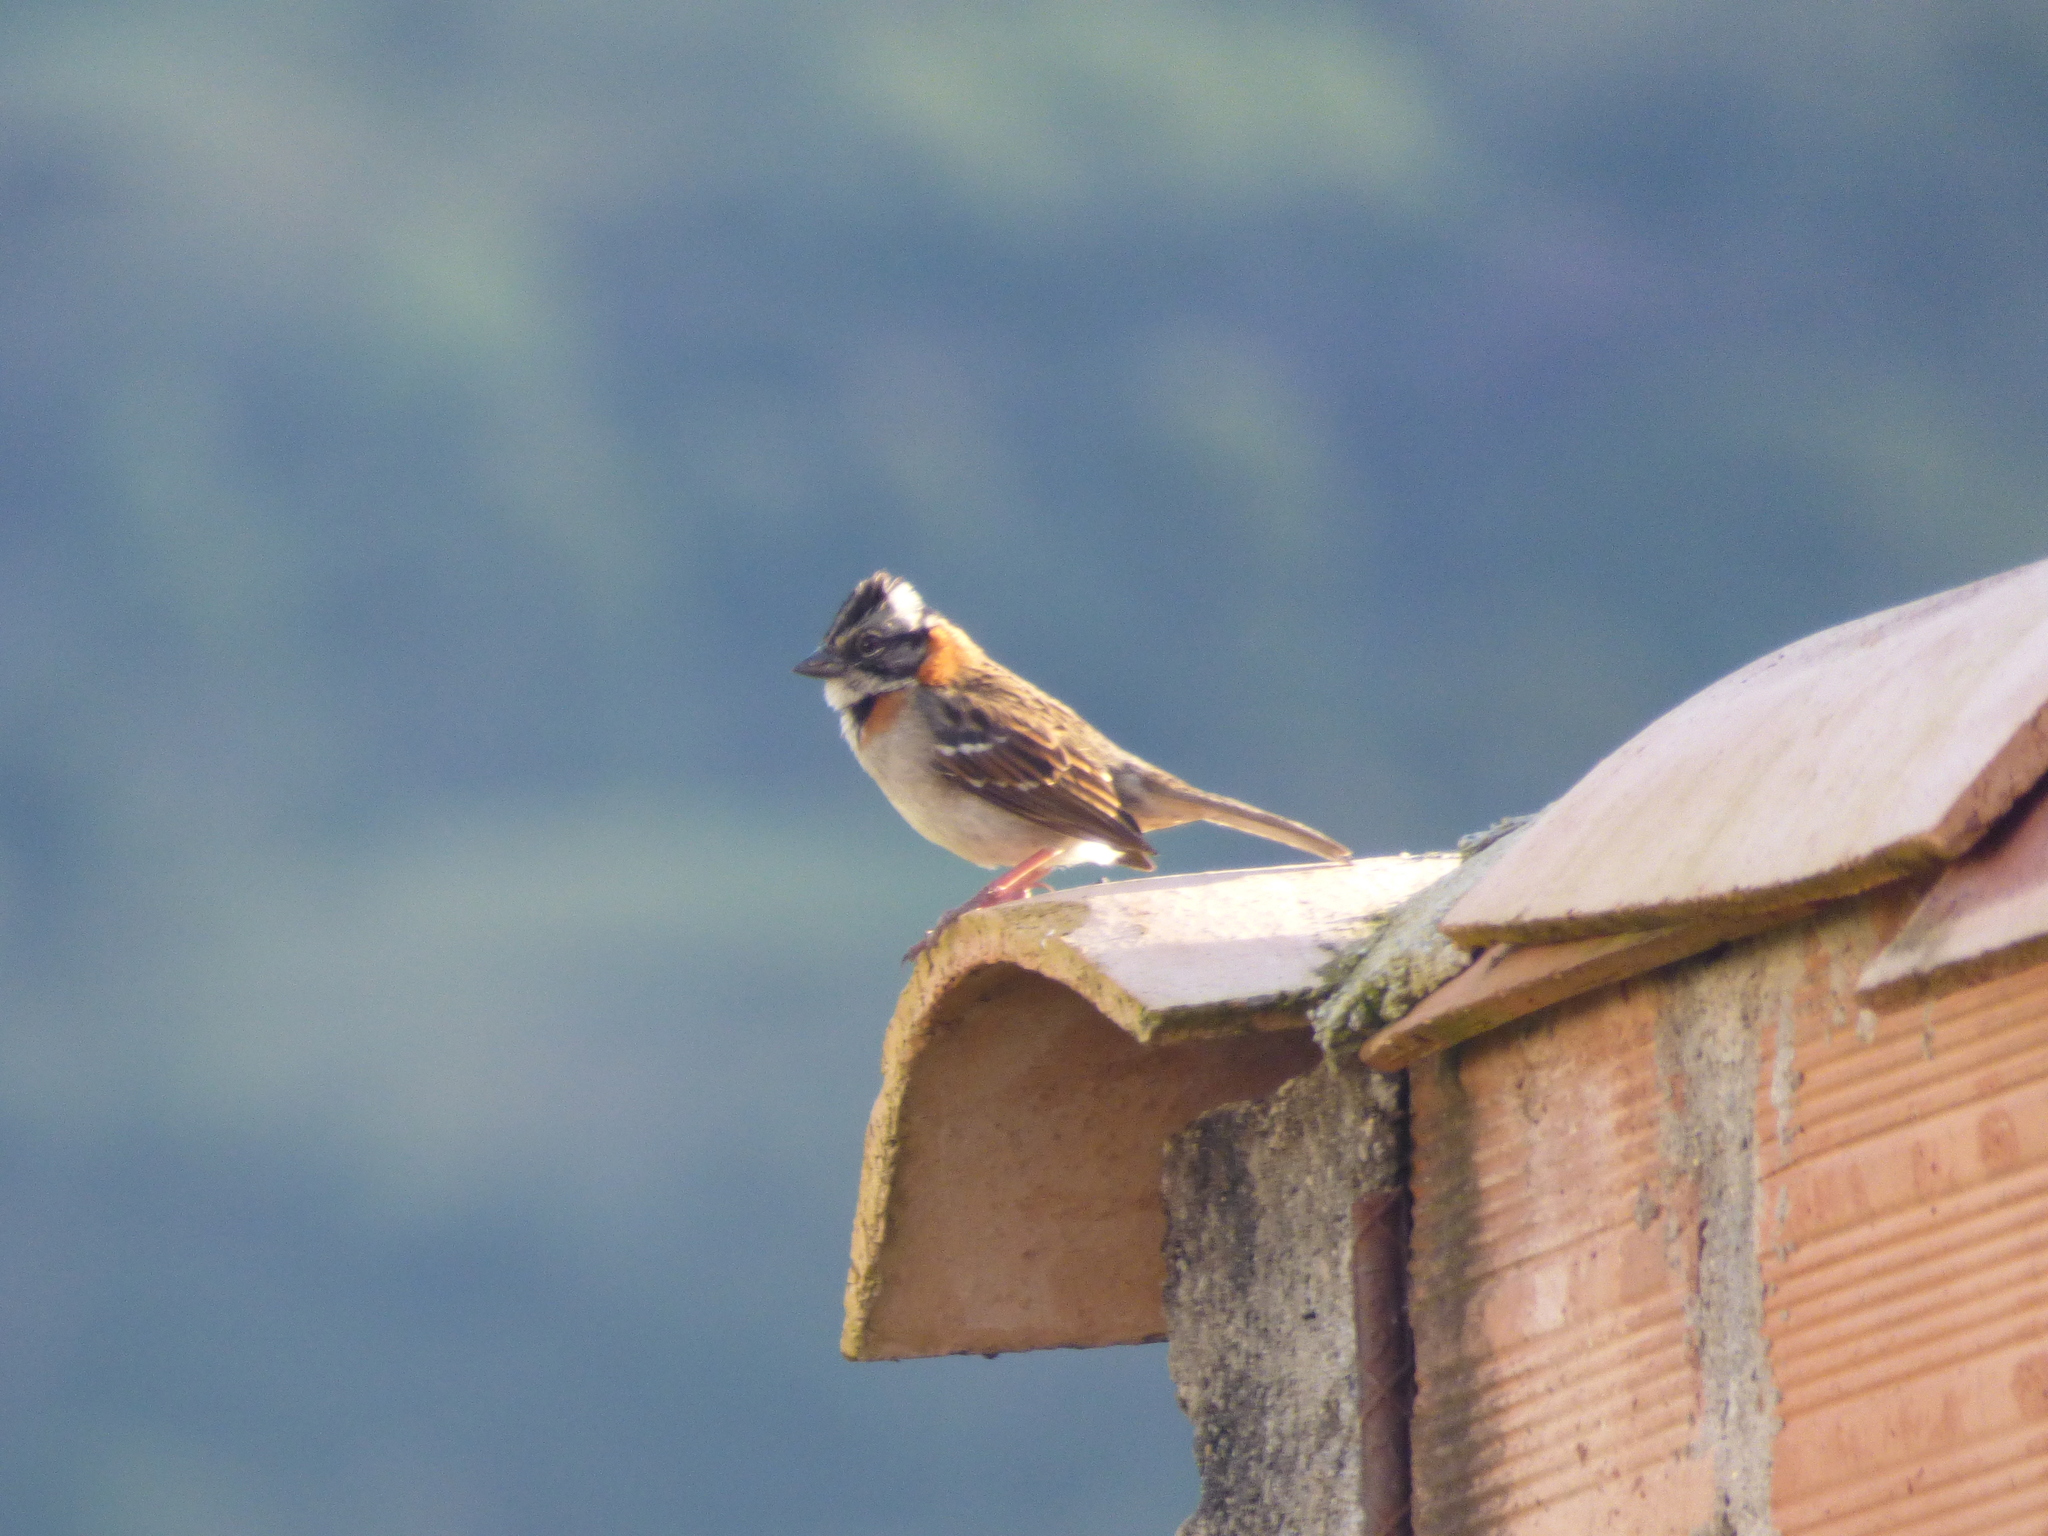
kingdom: Animalia
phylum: Chordata
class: Aves
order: Passeriformes
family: Passerellidae
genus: Zonotrichia
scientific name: Zonotrichia capensis
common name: Rufous-collared sparrow
